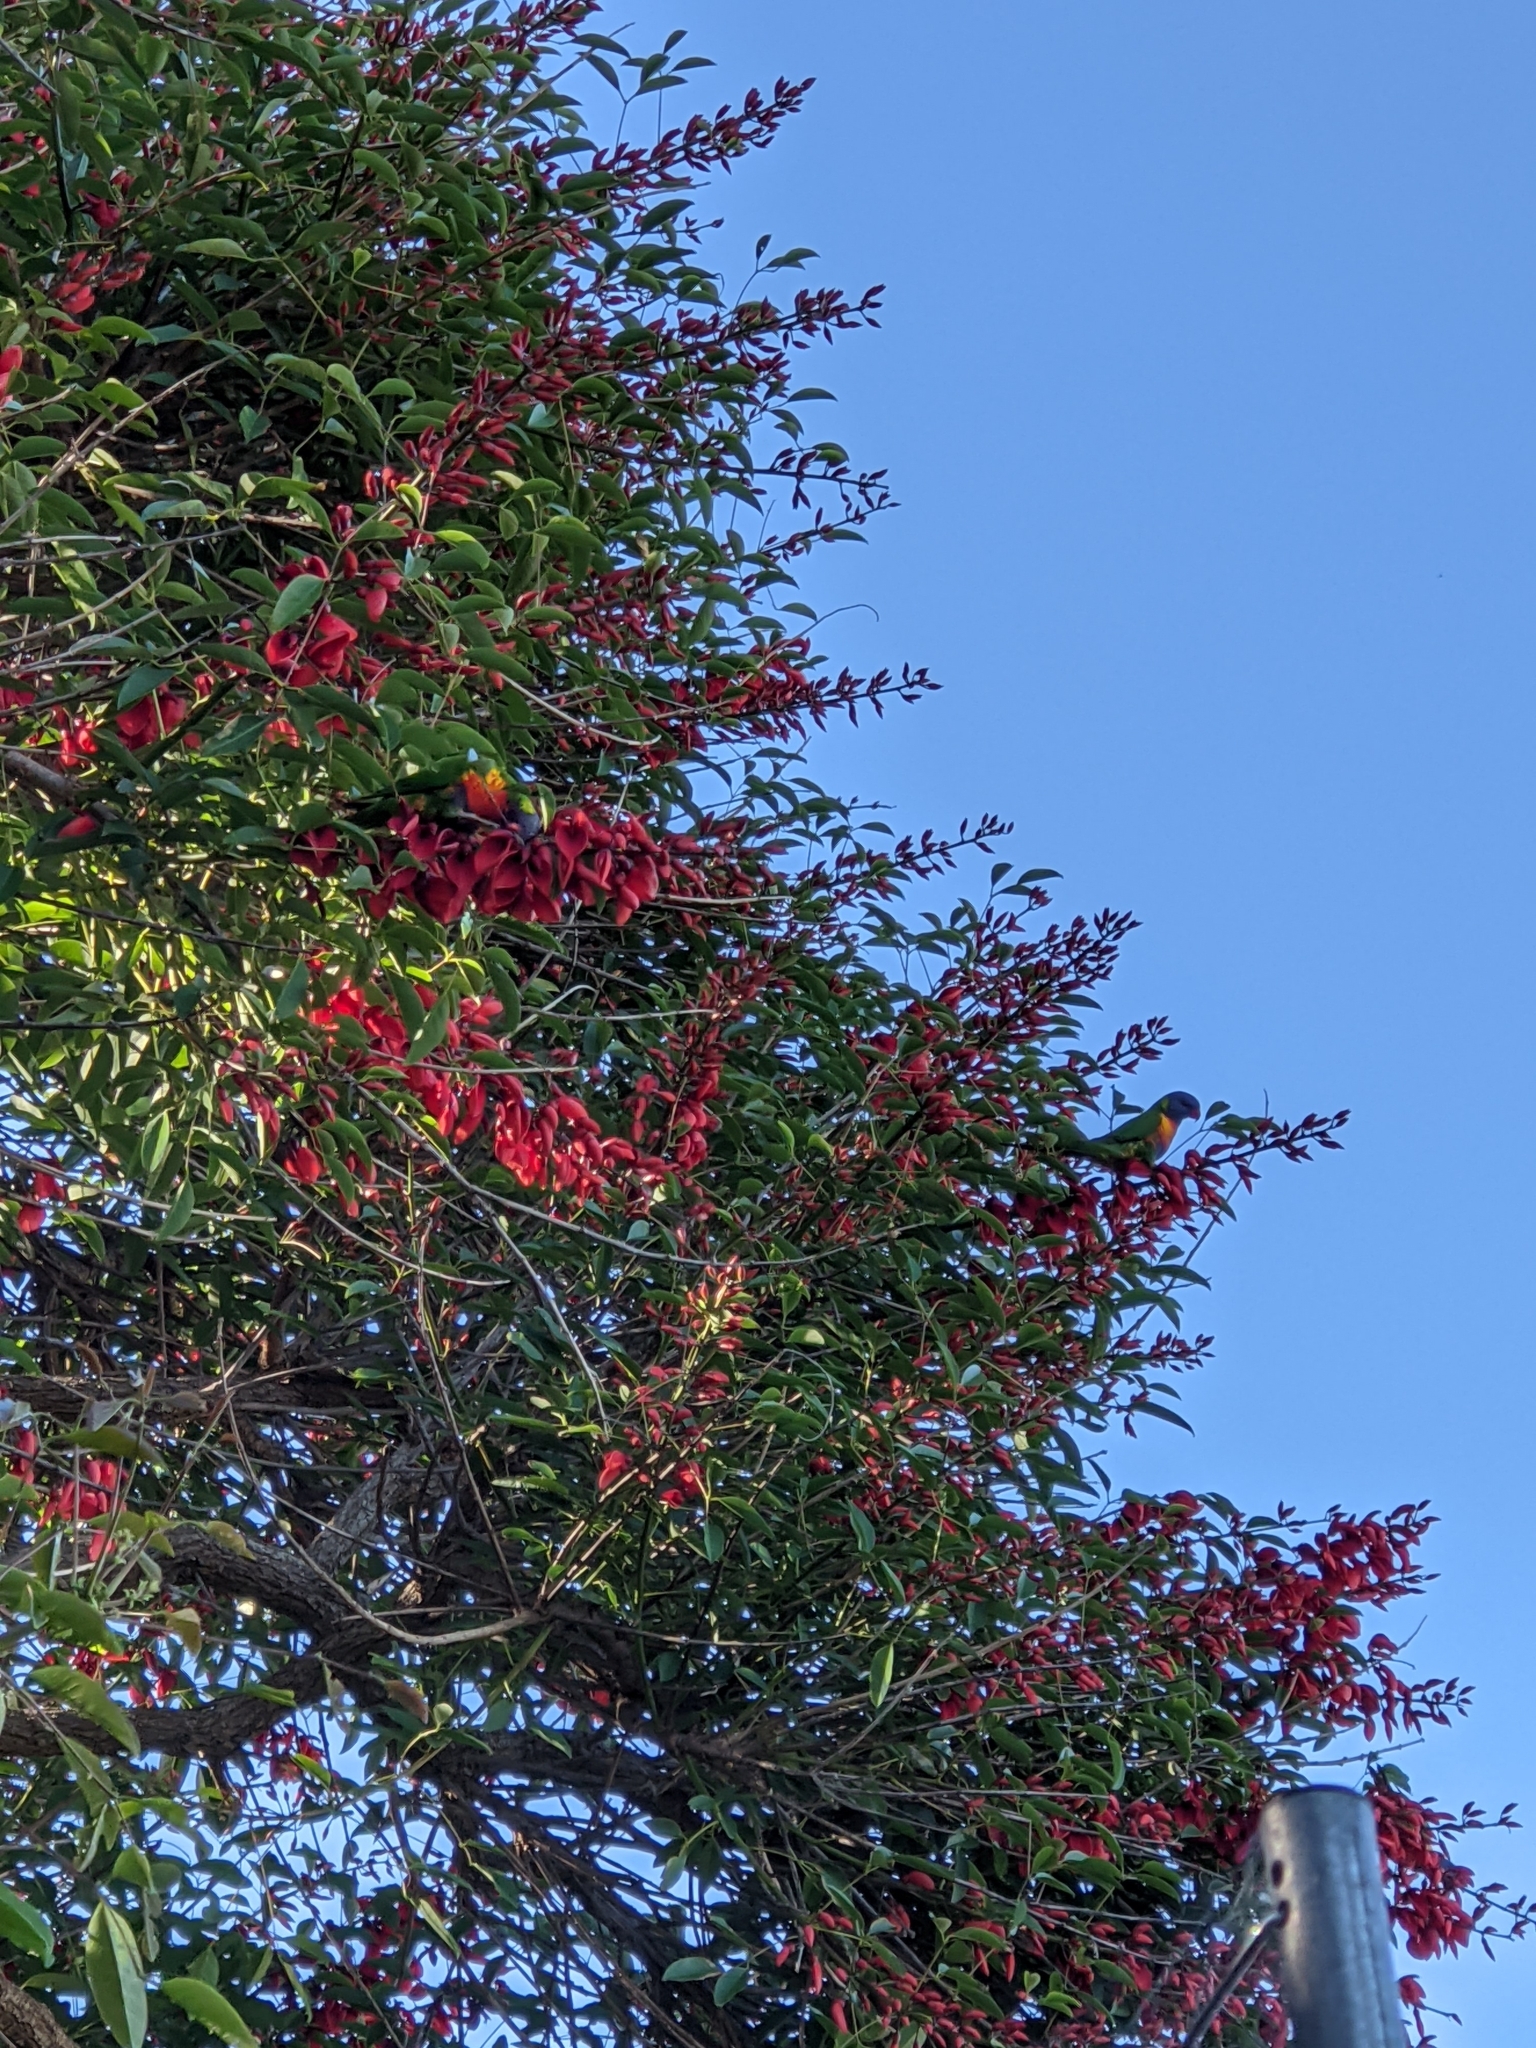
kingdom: Animalia
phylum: Chordata
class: Aves
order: Psittaciformes
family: Psittacidae
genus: Trichoglossus
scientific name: Trichoglossus haematodus
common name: Coconut lorikeet
